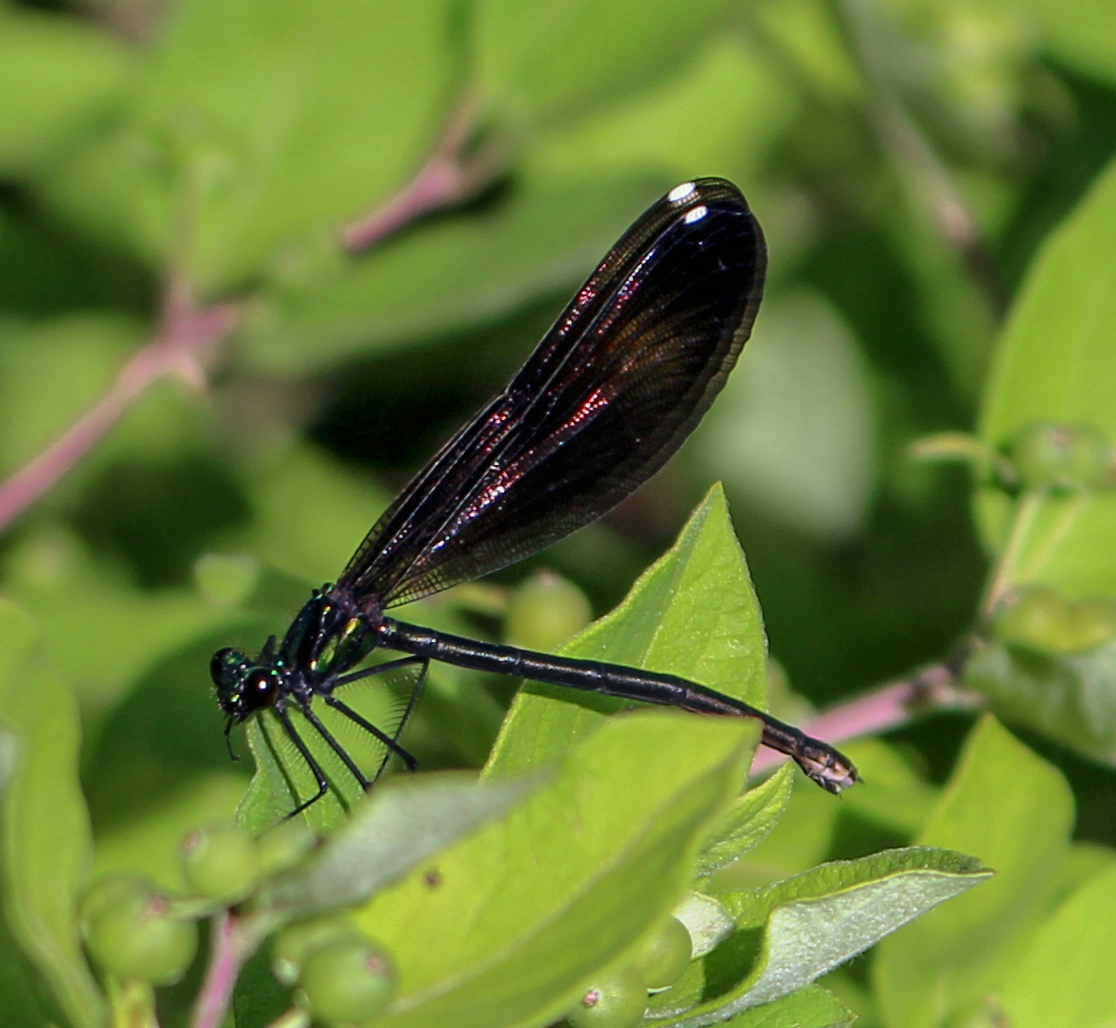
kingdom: Animalia
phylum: Arthropoda
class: Insecta
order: Odonata
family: Calopterygidae
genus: Calopteryx
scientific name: Calopteryx maculata
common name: Ebony jewelwing
